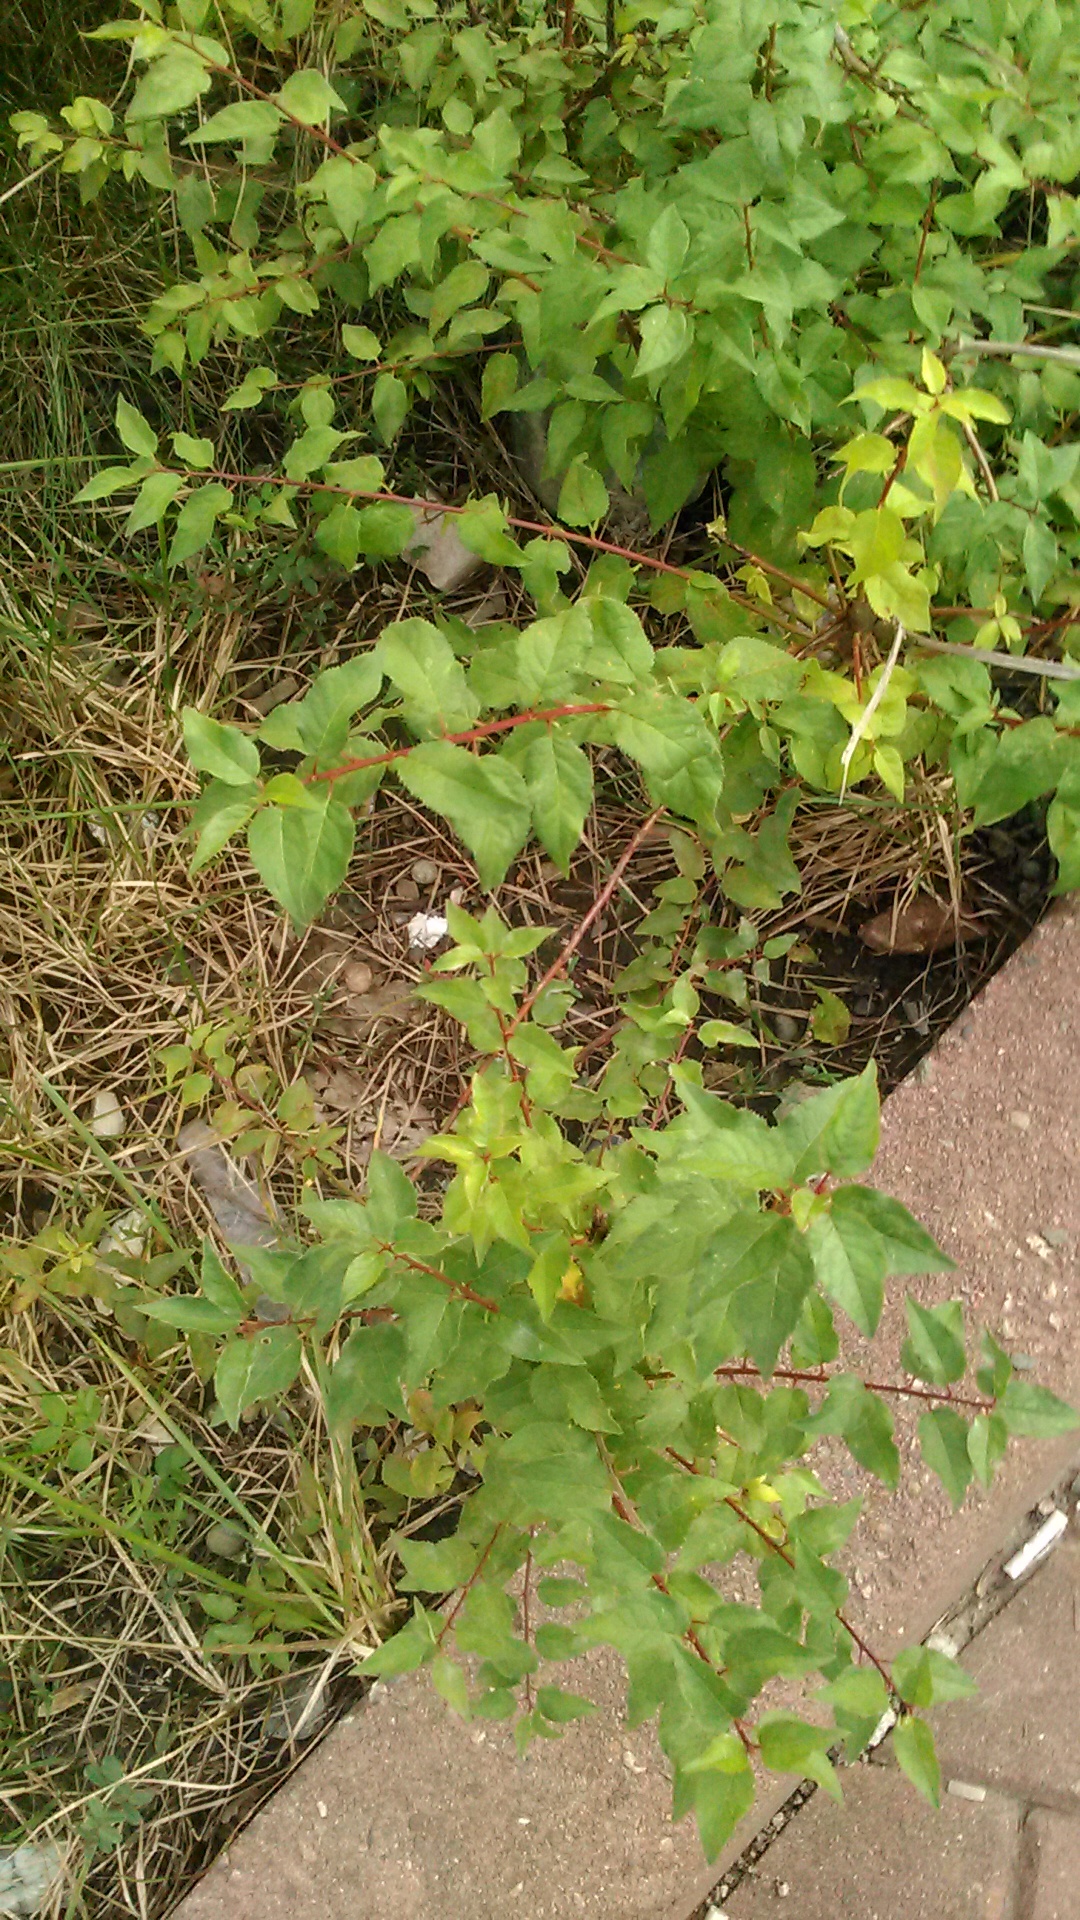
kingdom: Plantae
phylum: Tracheophyta
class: Magnoliopsida
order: Rosales
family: Rosaceae
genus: Prunus
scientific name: Prunus cerasifera
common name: Cherry plum
